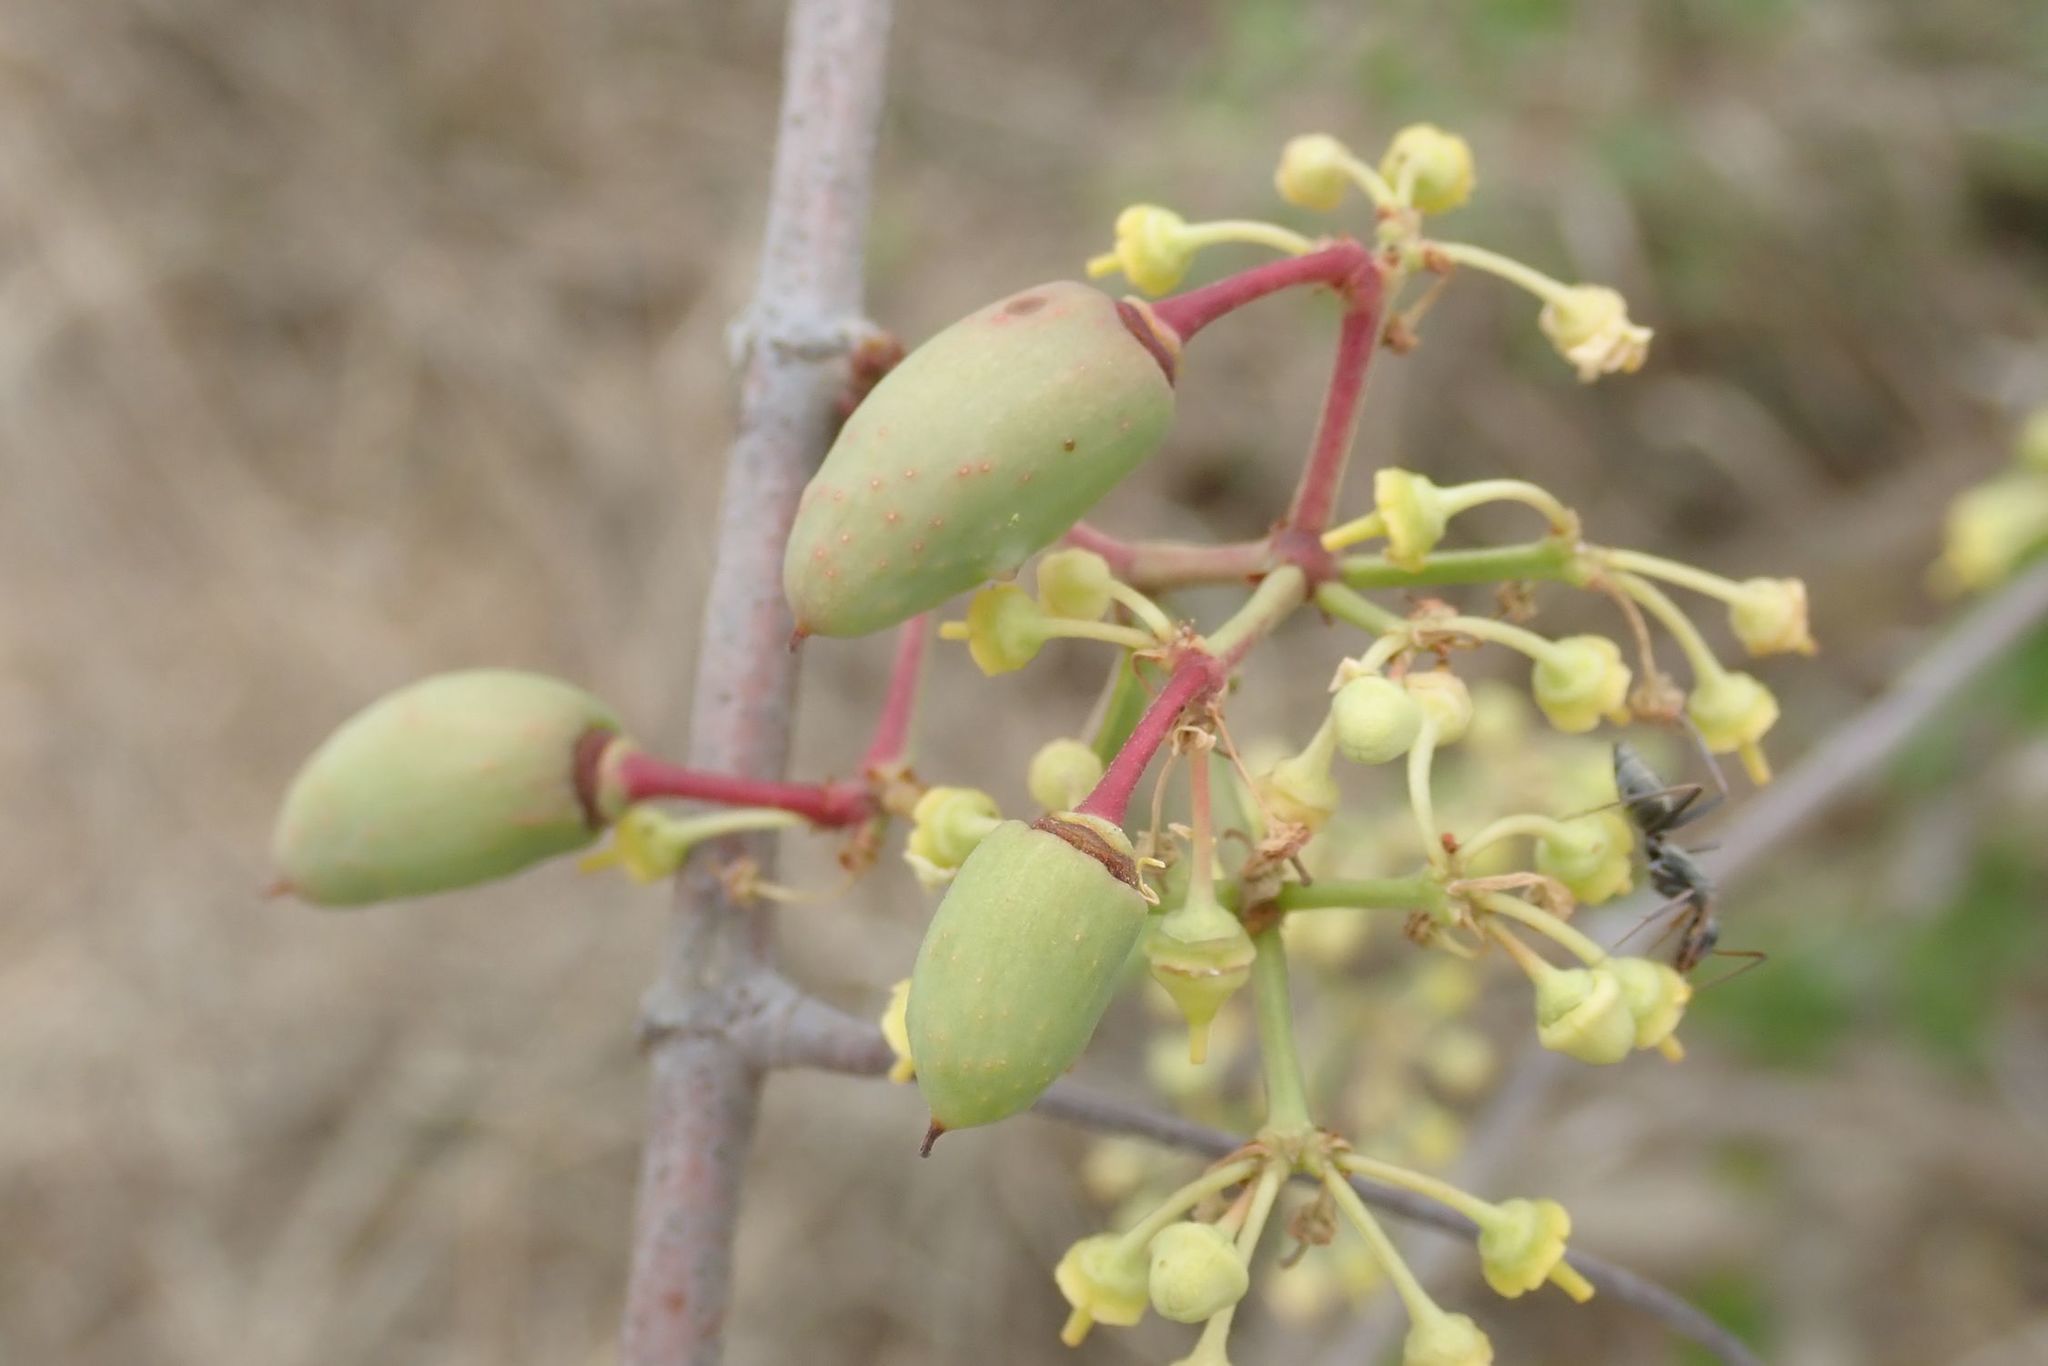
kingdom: Plantae
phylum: Tracheophyta
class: Magnoliopsida
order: Vitales
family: Vitaceae
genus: Cissus
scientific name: Cissus cornifolia
